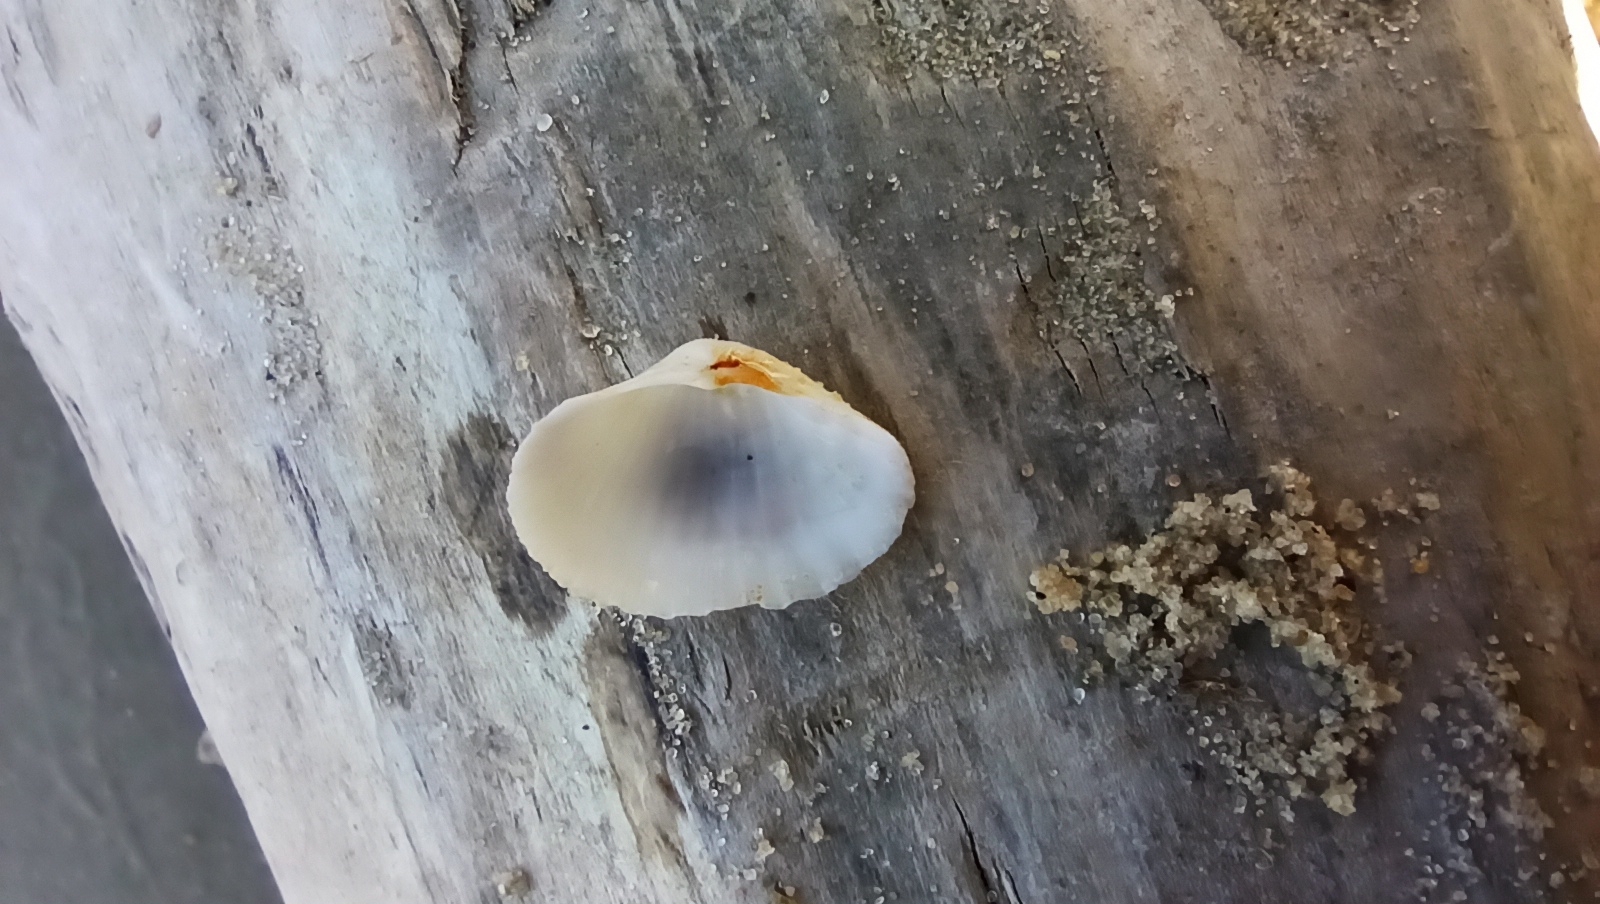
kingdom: Animalia
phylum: Mollusca
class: Bivalvia
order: Cardiida
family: Cardiidae
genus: Monodacna
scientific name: Monodacna colorata
